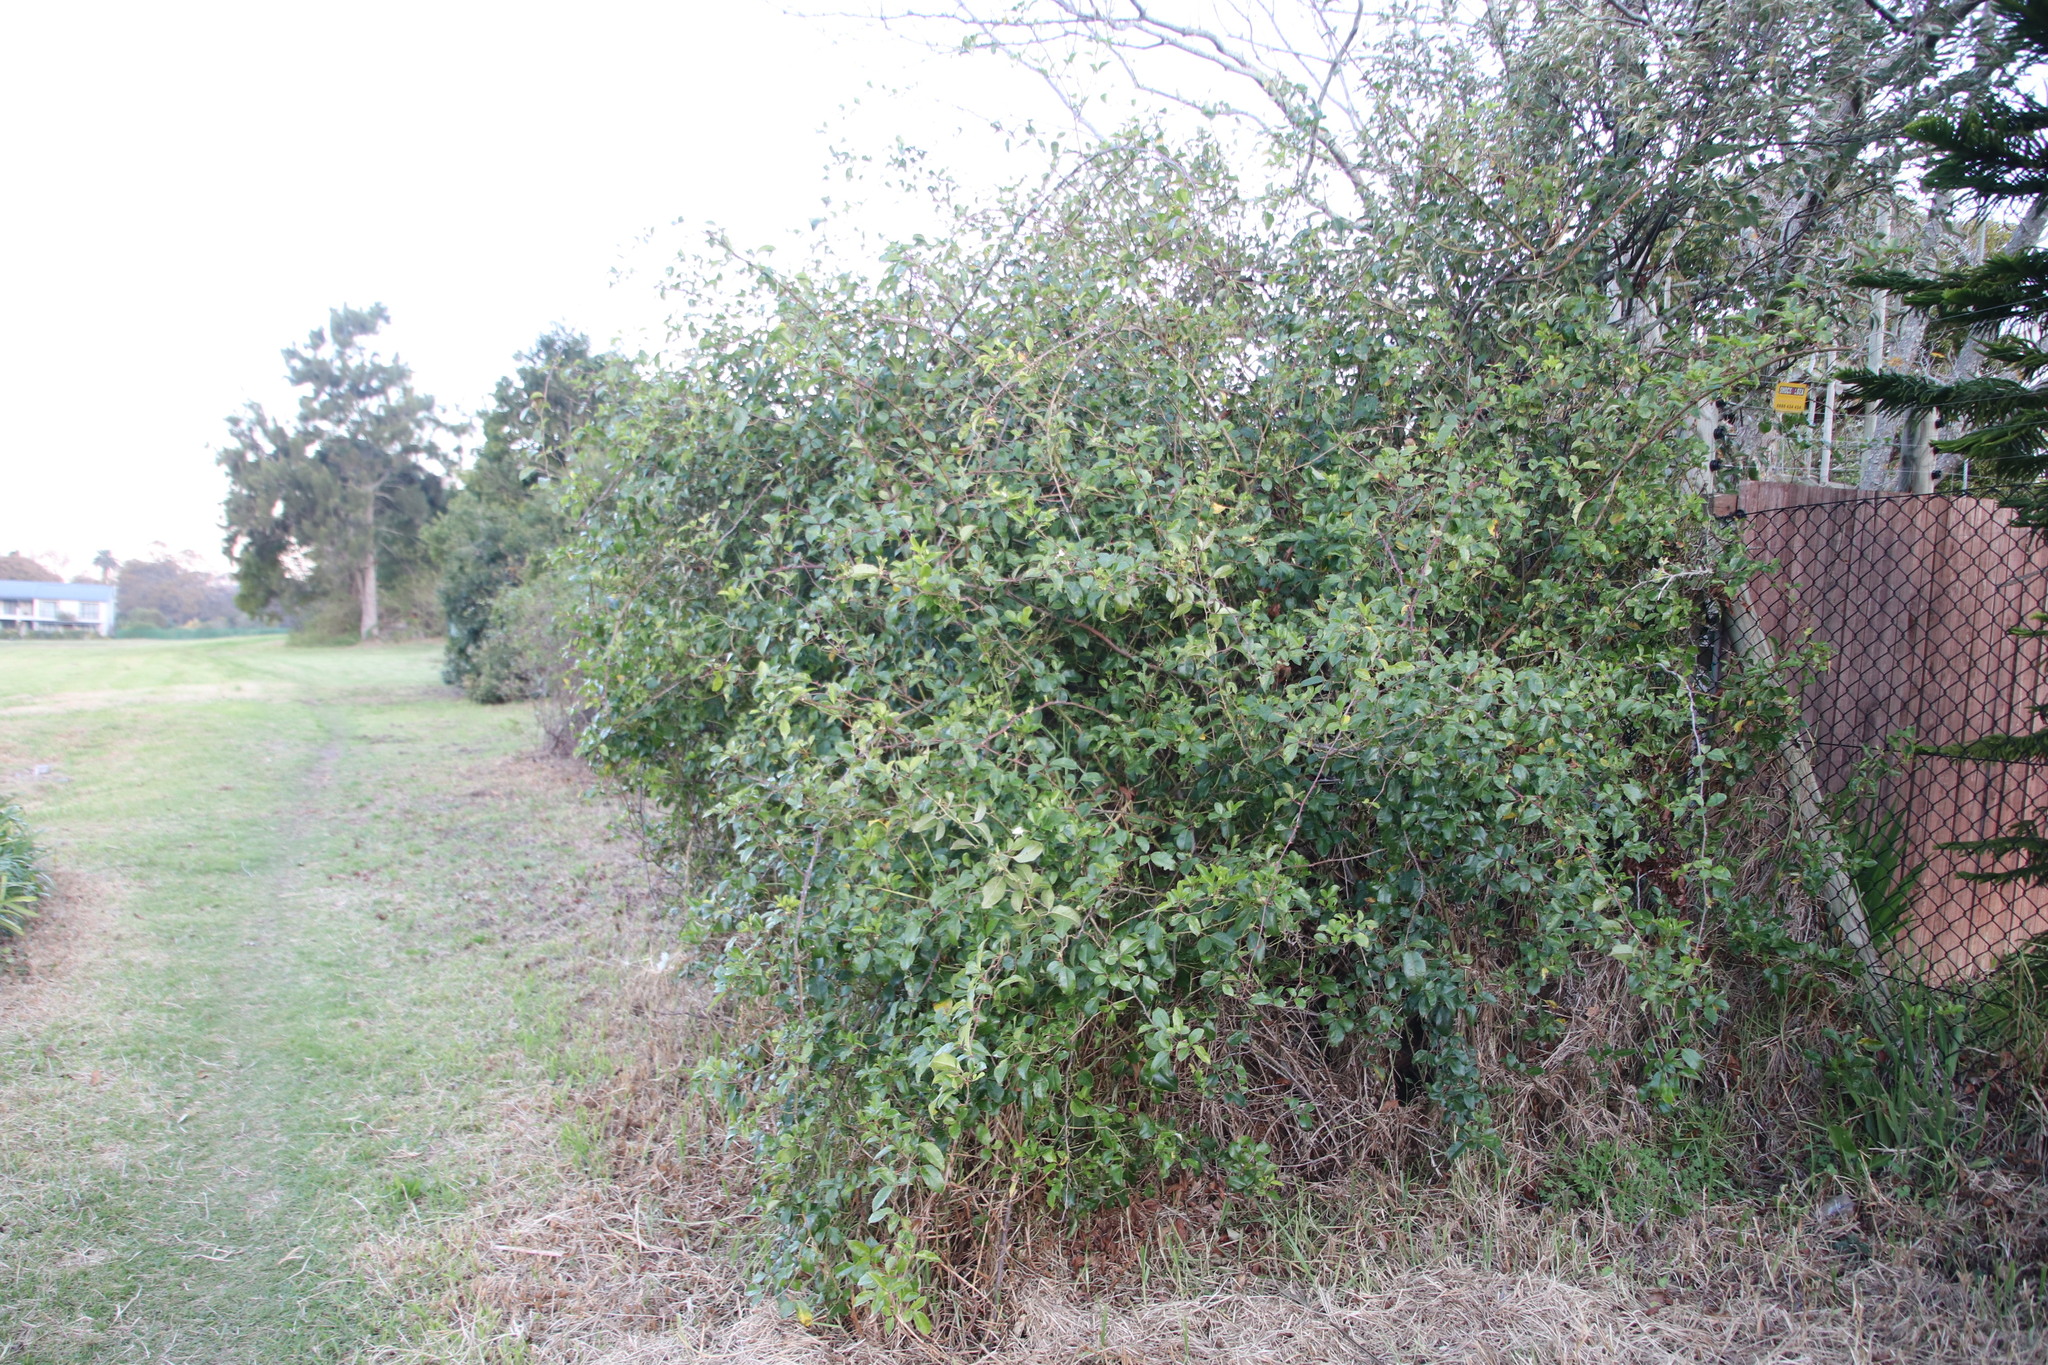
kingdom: Plantae
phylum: Tracheophyta
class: Magnoliopsida
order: Rosales
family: Rosaceae
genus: Rosa
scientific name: Rosa laevigata
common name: Cherokee rose
